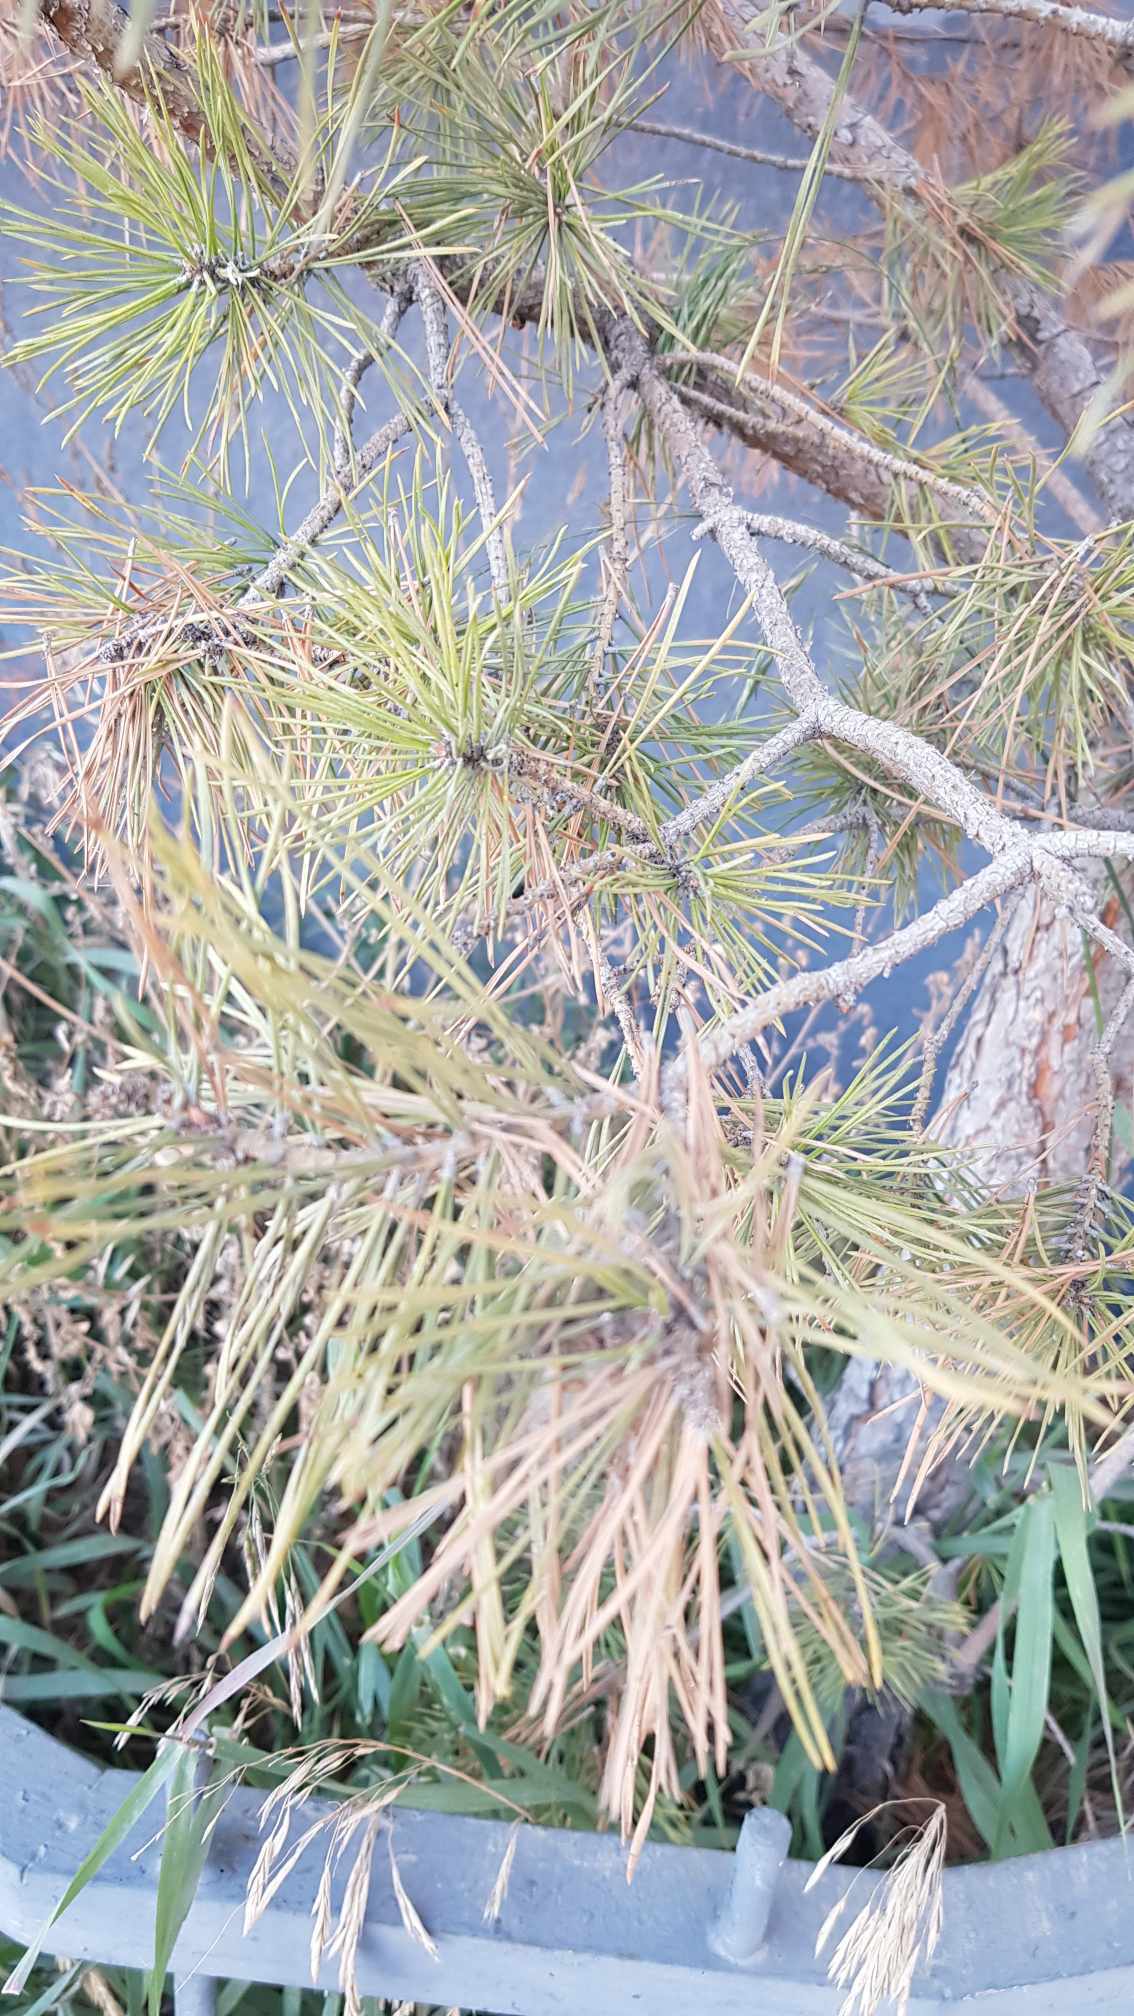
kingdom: Plantae
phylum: Tracheophyta
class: Pinopsida
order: Pinales
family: Pinaceae
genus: Pinus
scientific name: Pinus sylvestris
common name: Scots pine
